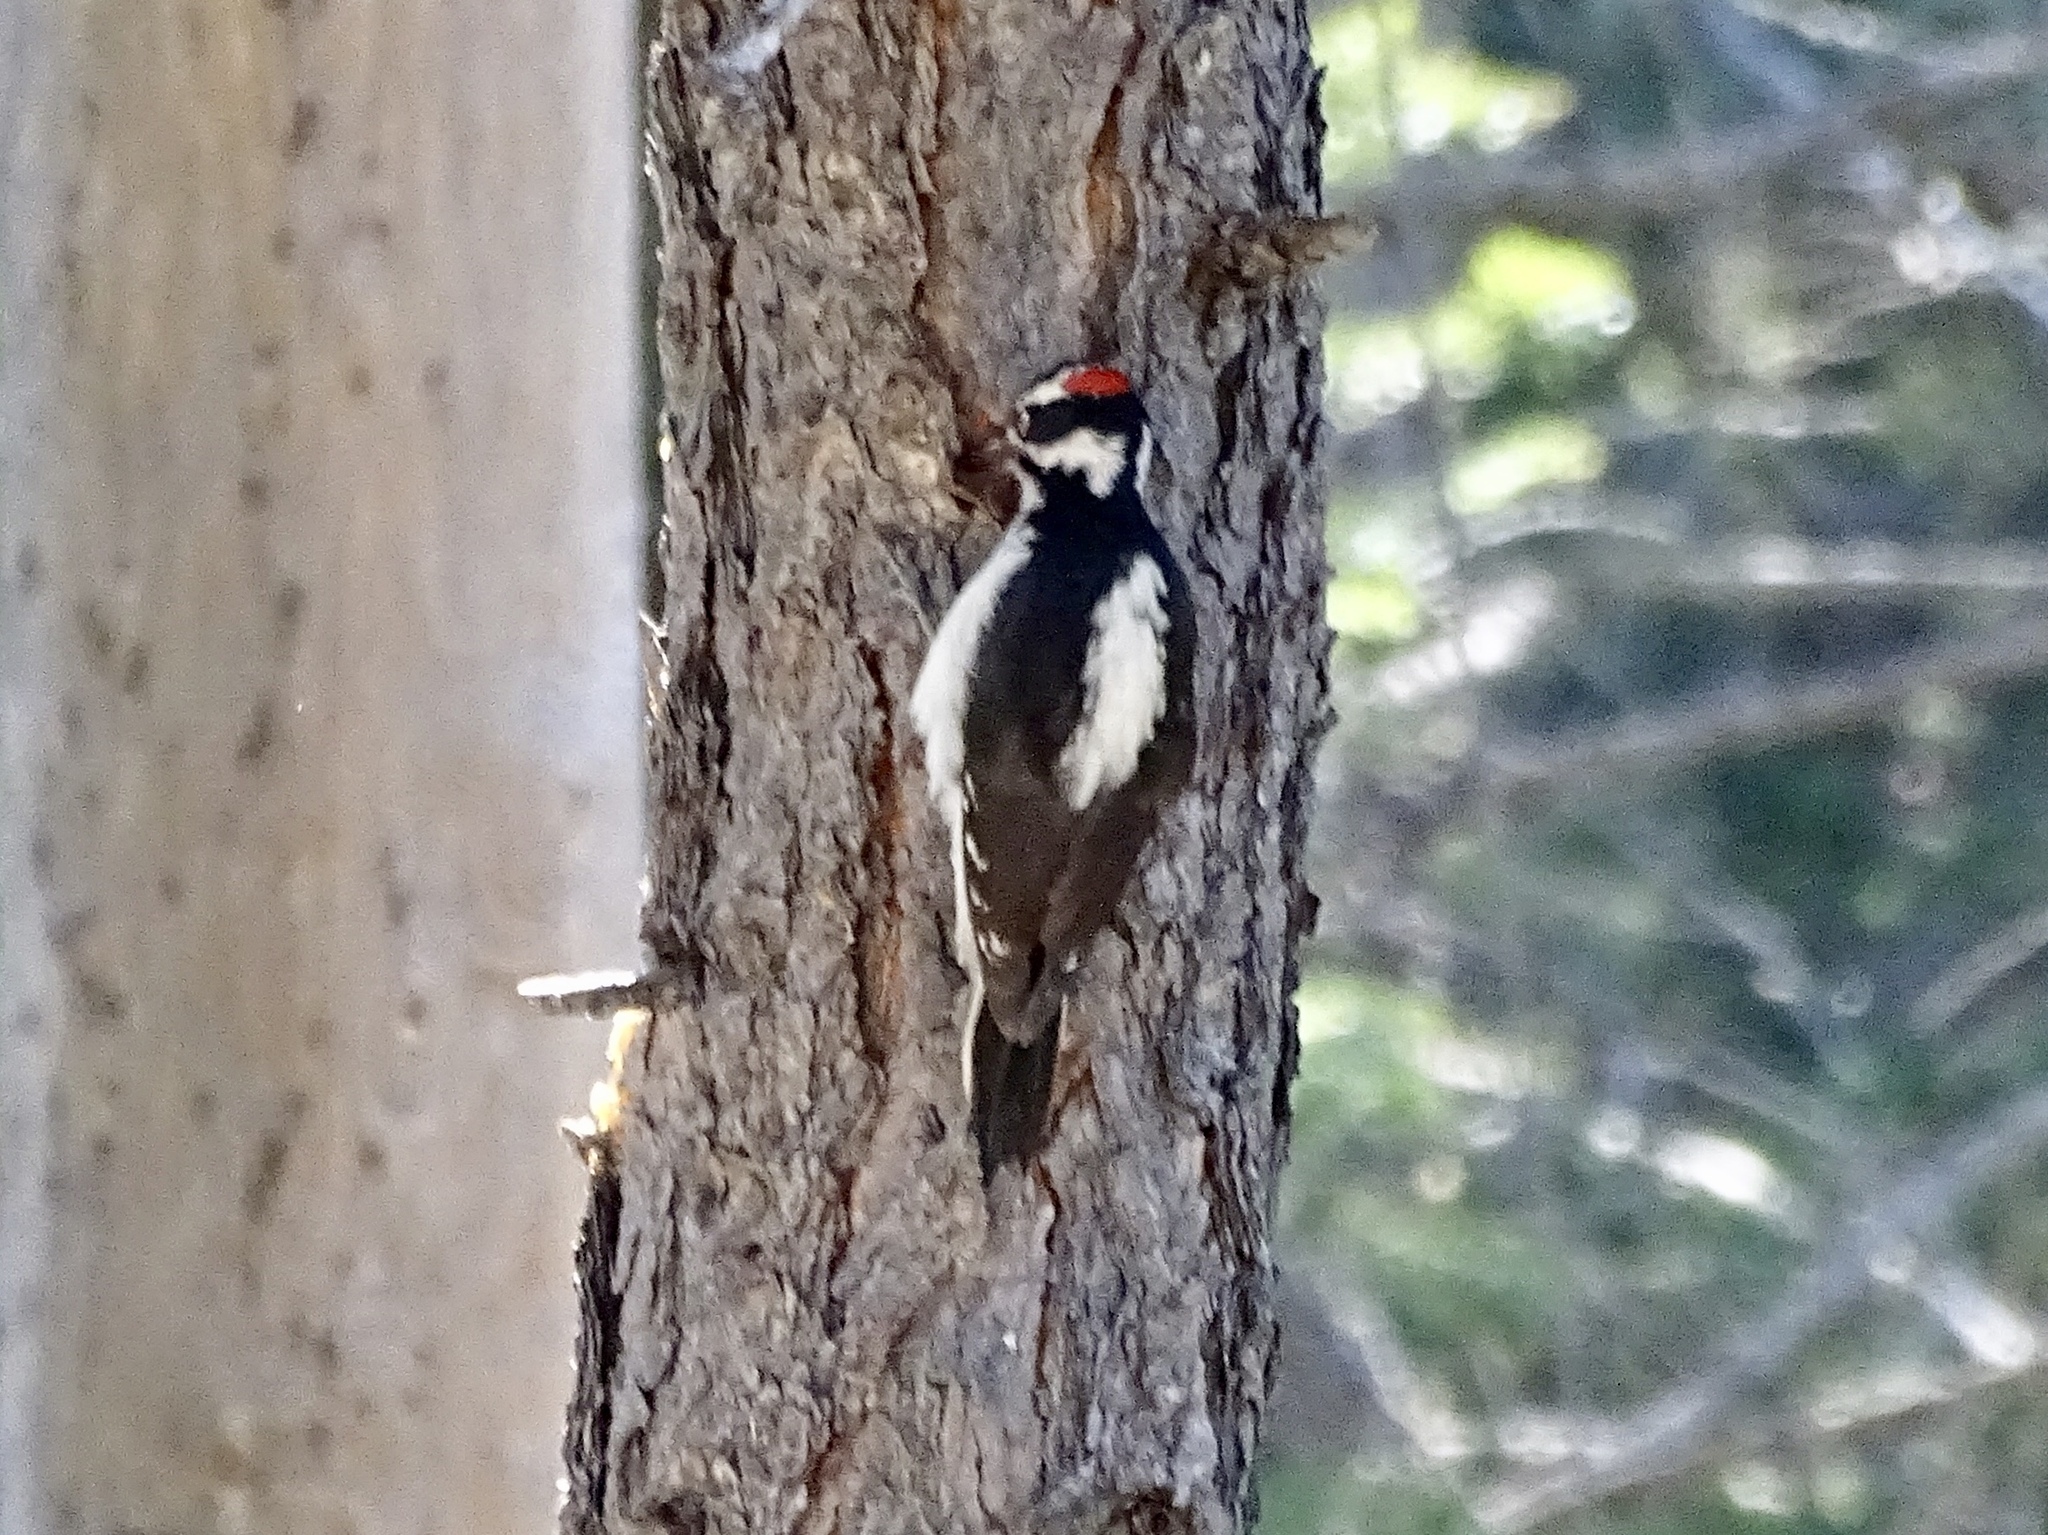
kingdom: Animalia
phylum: Chordata
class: Aves
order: Piciformes
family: Picidae
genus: Leuconotopicus
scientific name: Leuconotopicus villosus
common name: Hairy woodpecker
